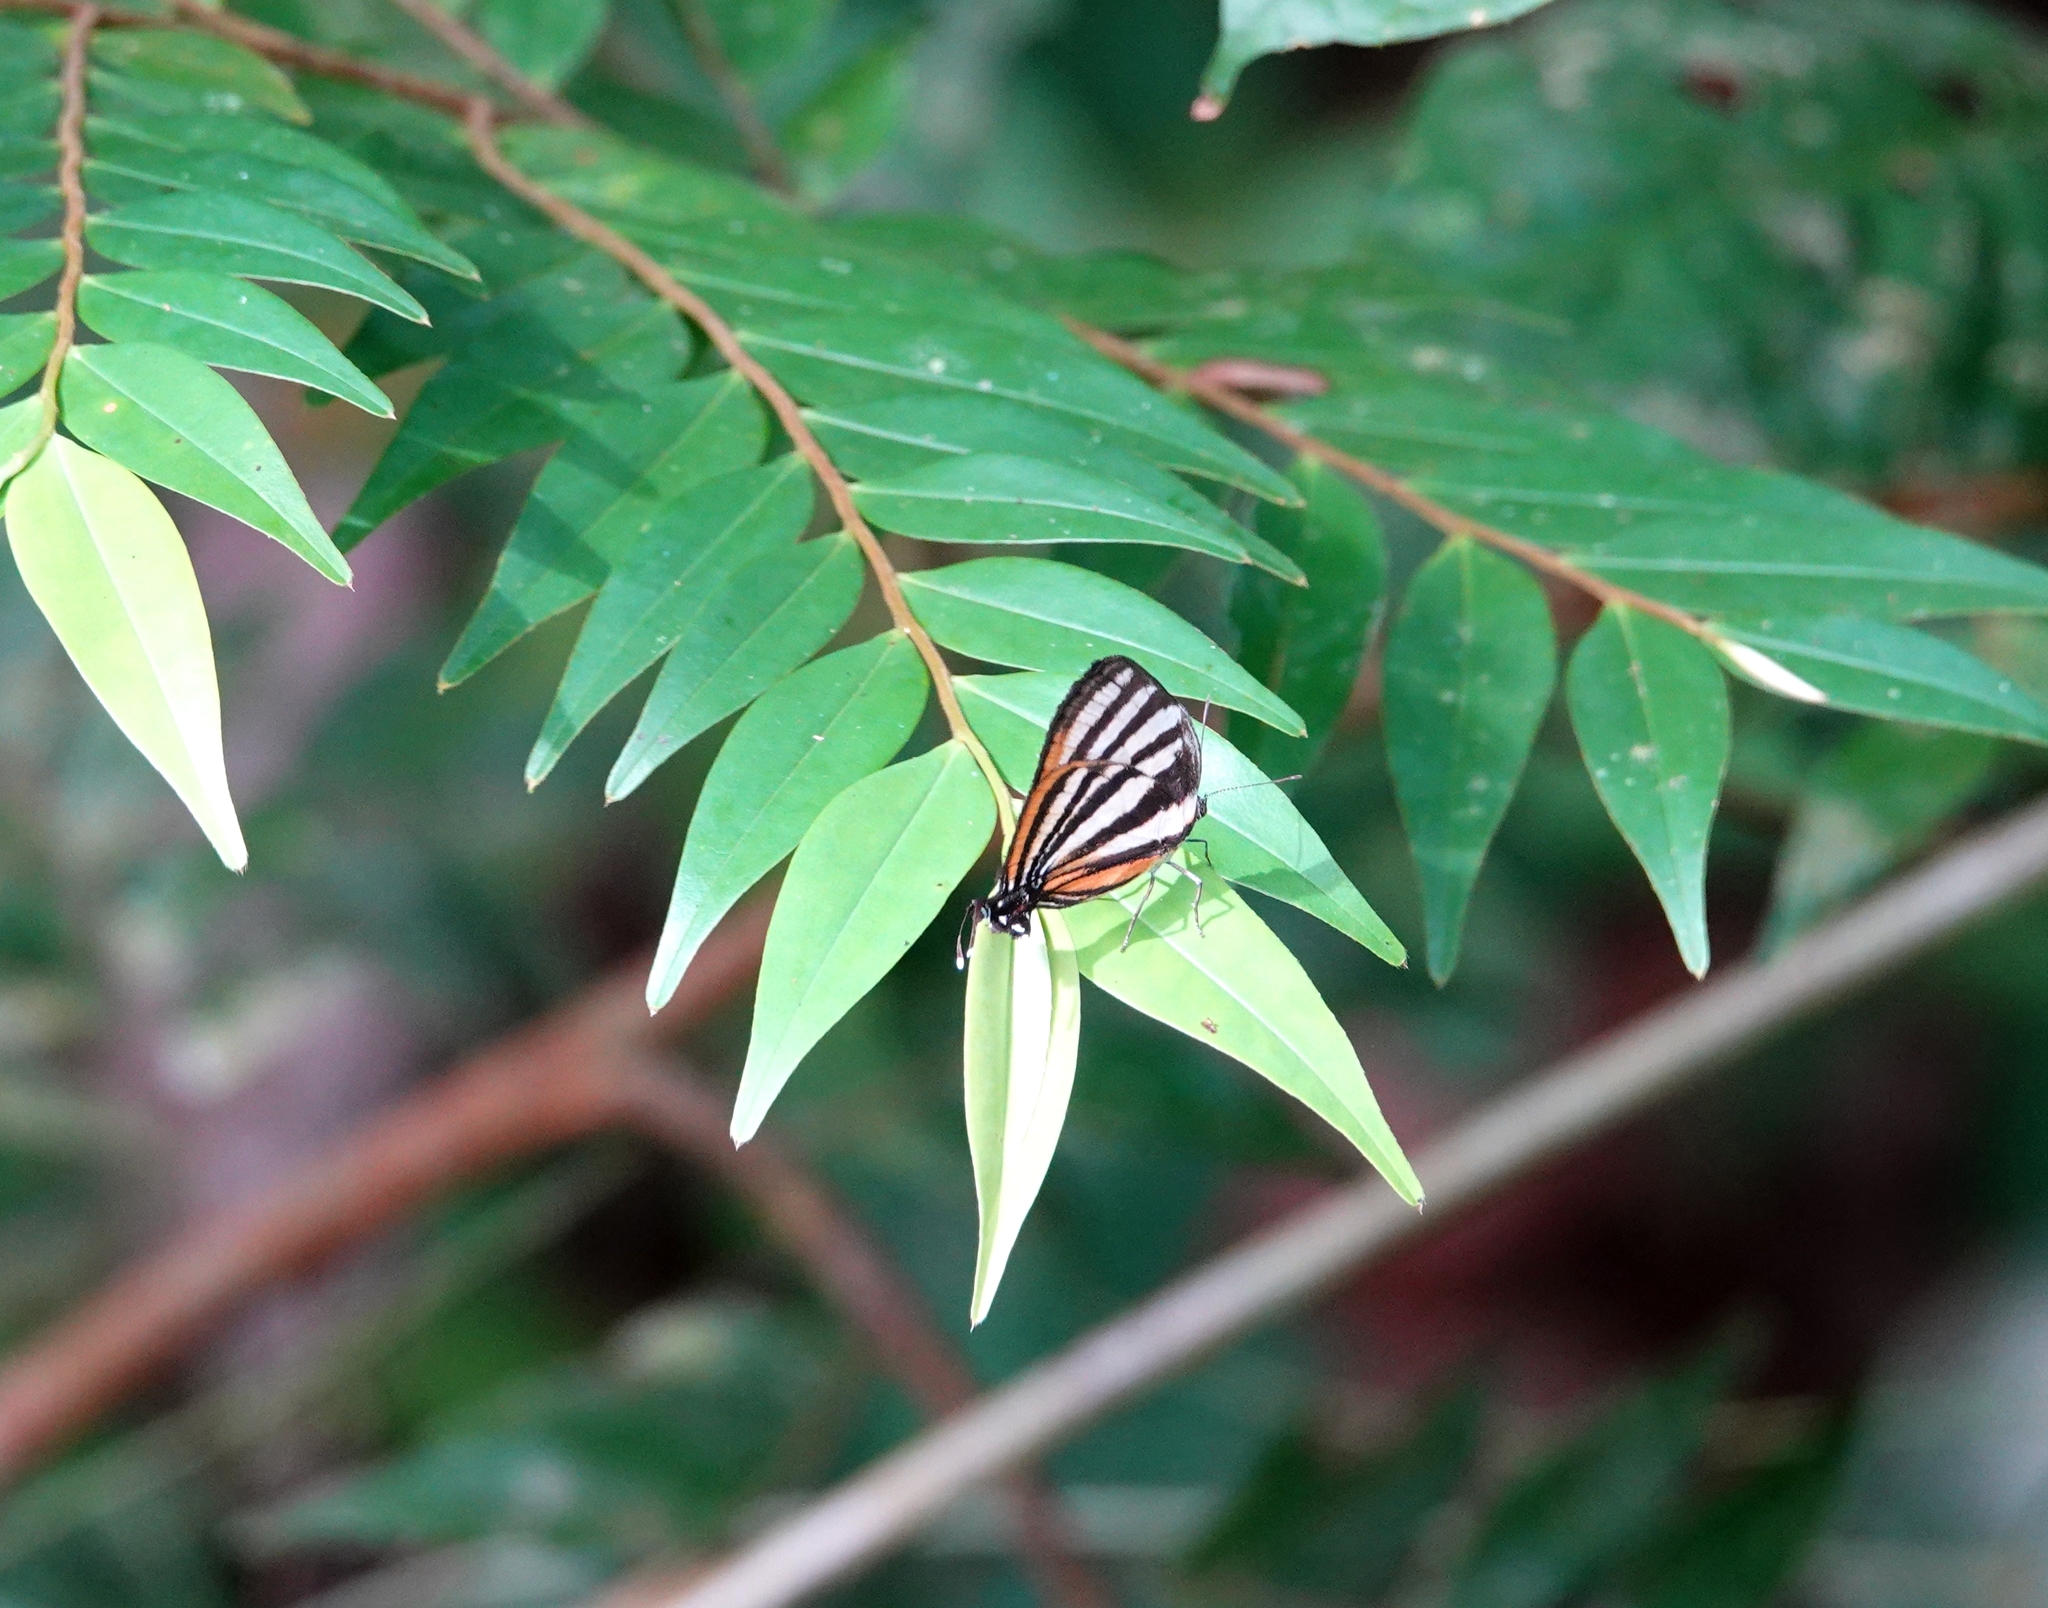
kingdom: Animalia
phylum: Arthropoda
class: Insecta
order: Lepidoptera
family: Lycaenidae
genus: Thecla
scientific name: Thecla aetolus
